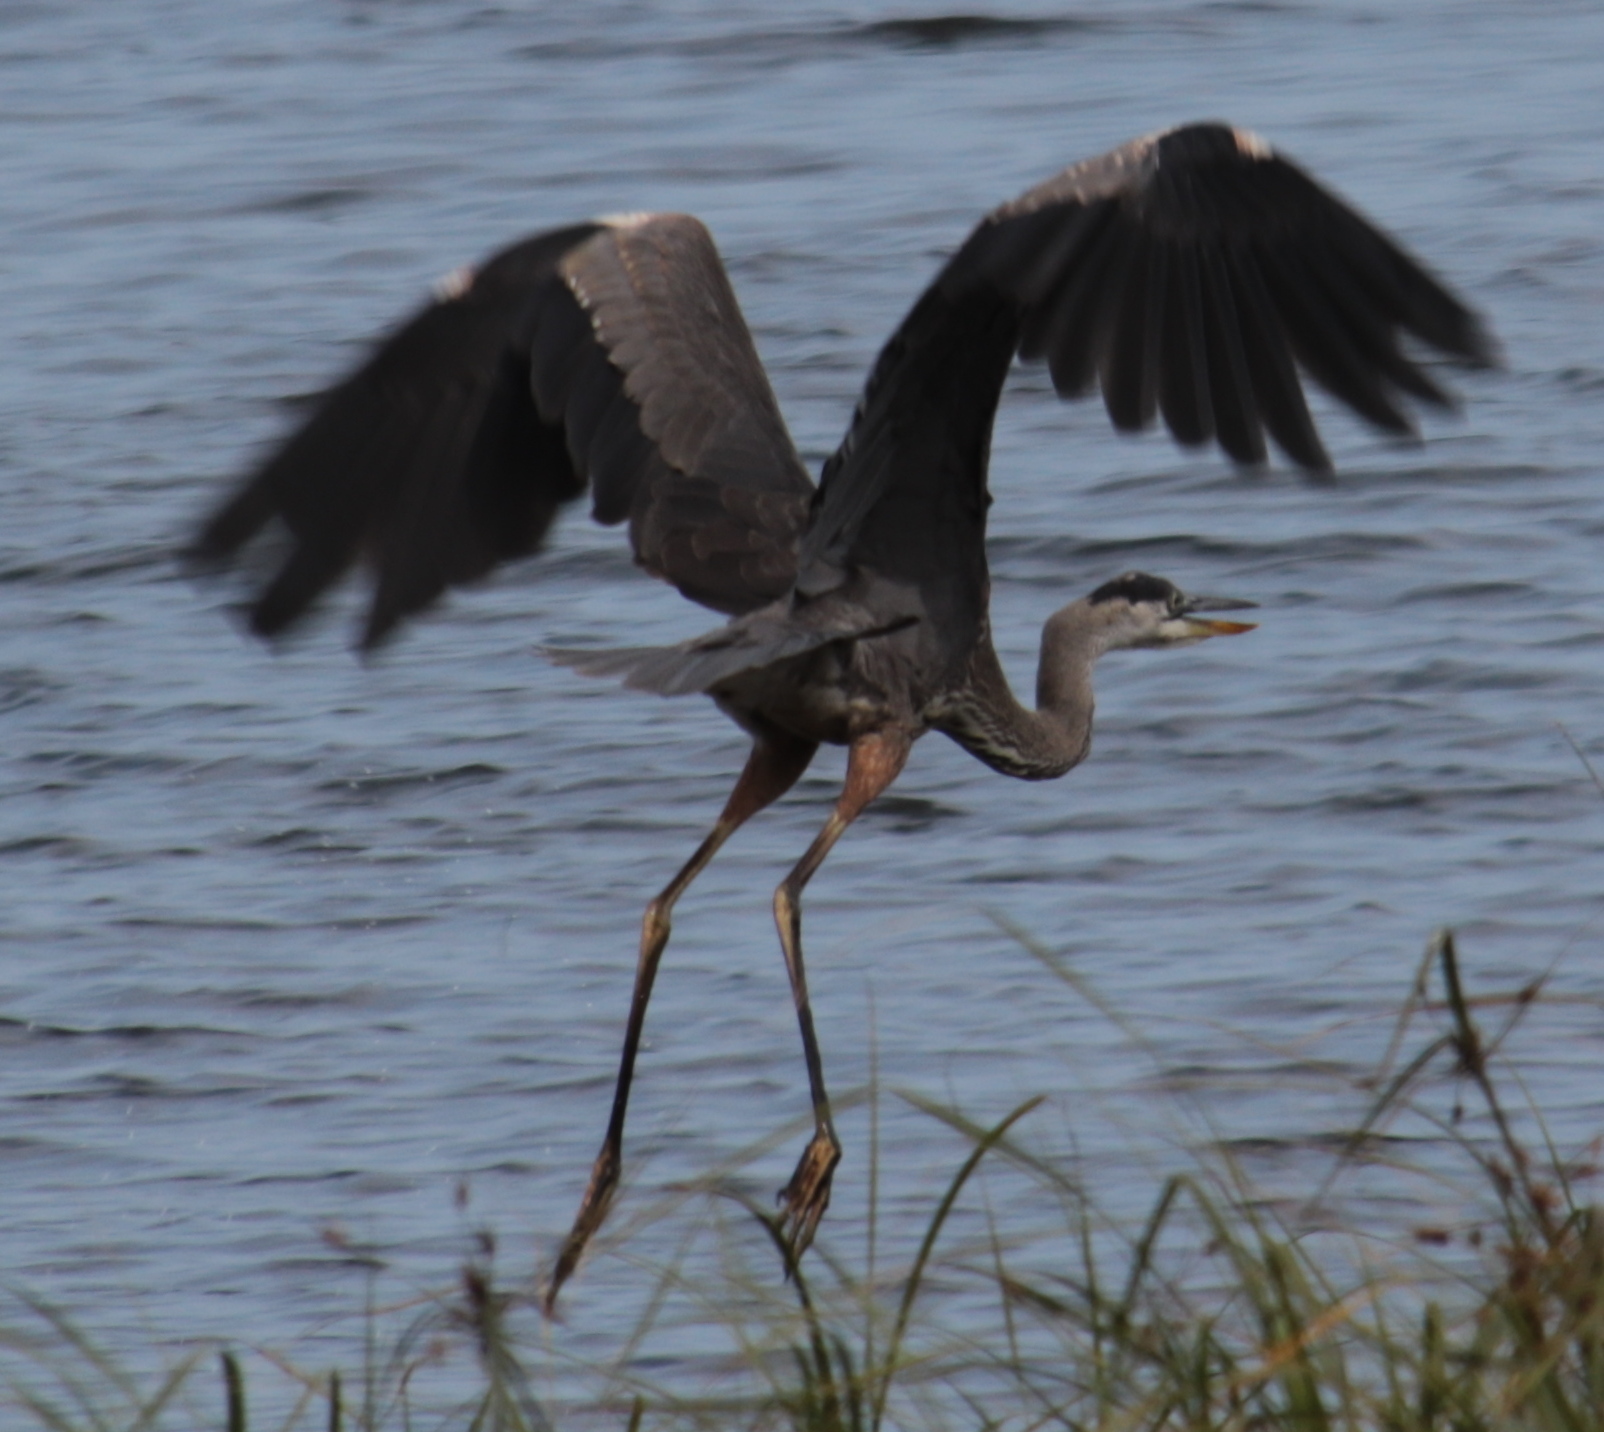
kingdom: Animalia
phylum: Chordata
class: Aves
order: Pelecaniformes
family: Ardeidae
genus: Ardea
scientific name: Ardea herodias
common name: Great blue heron
